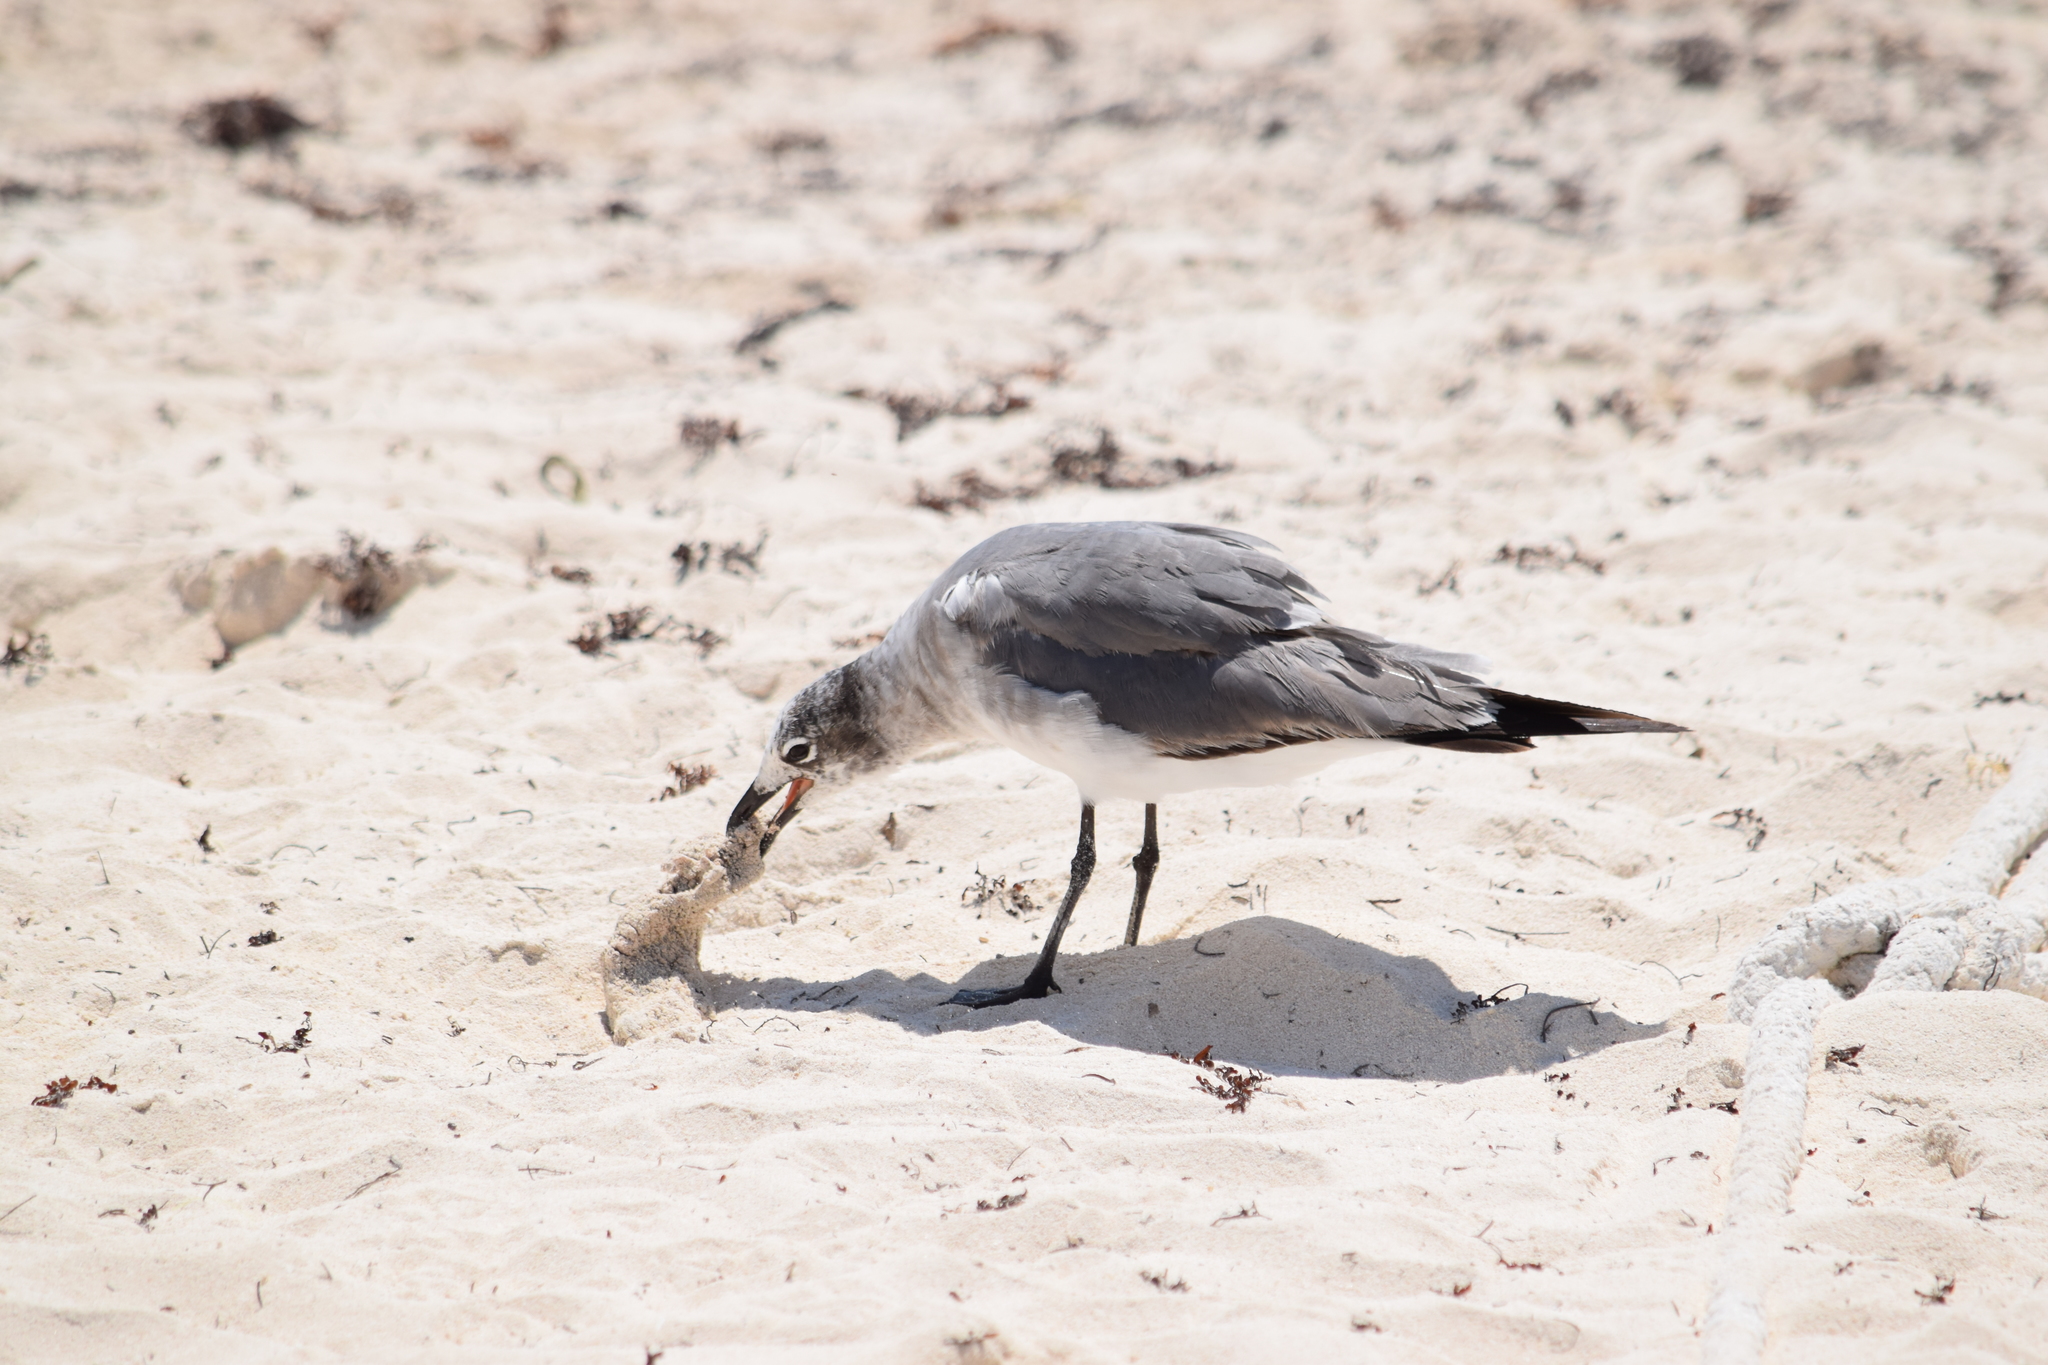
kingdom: Animalia
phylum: Chordata
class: Aves
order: Charadriiformes
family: Laridae
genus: Leucophaeus
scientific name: Leucophaeus atricilla
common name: Laughing gull
